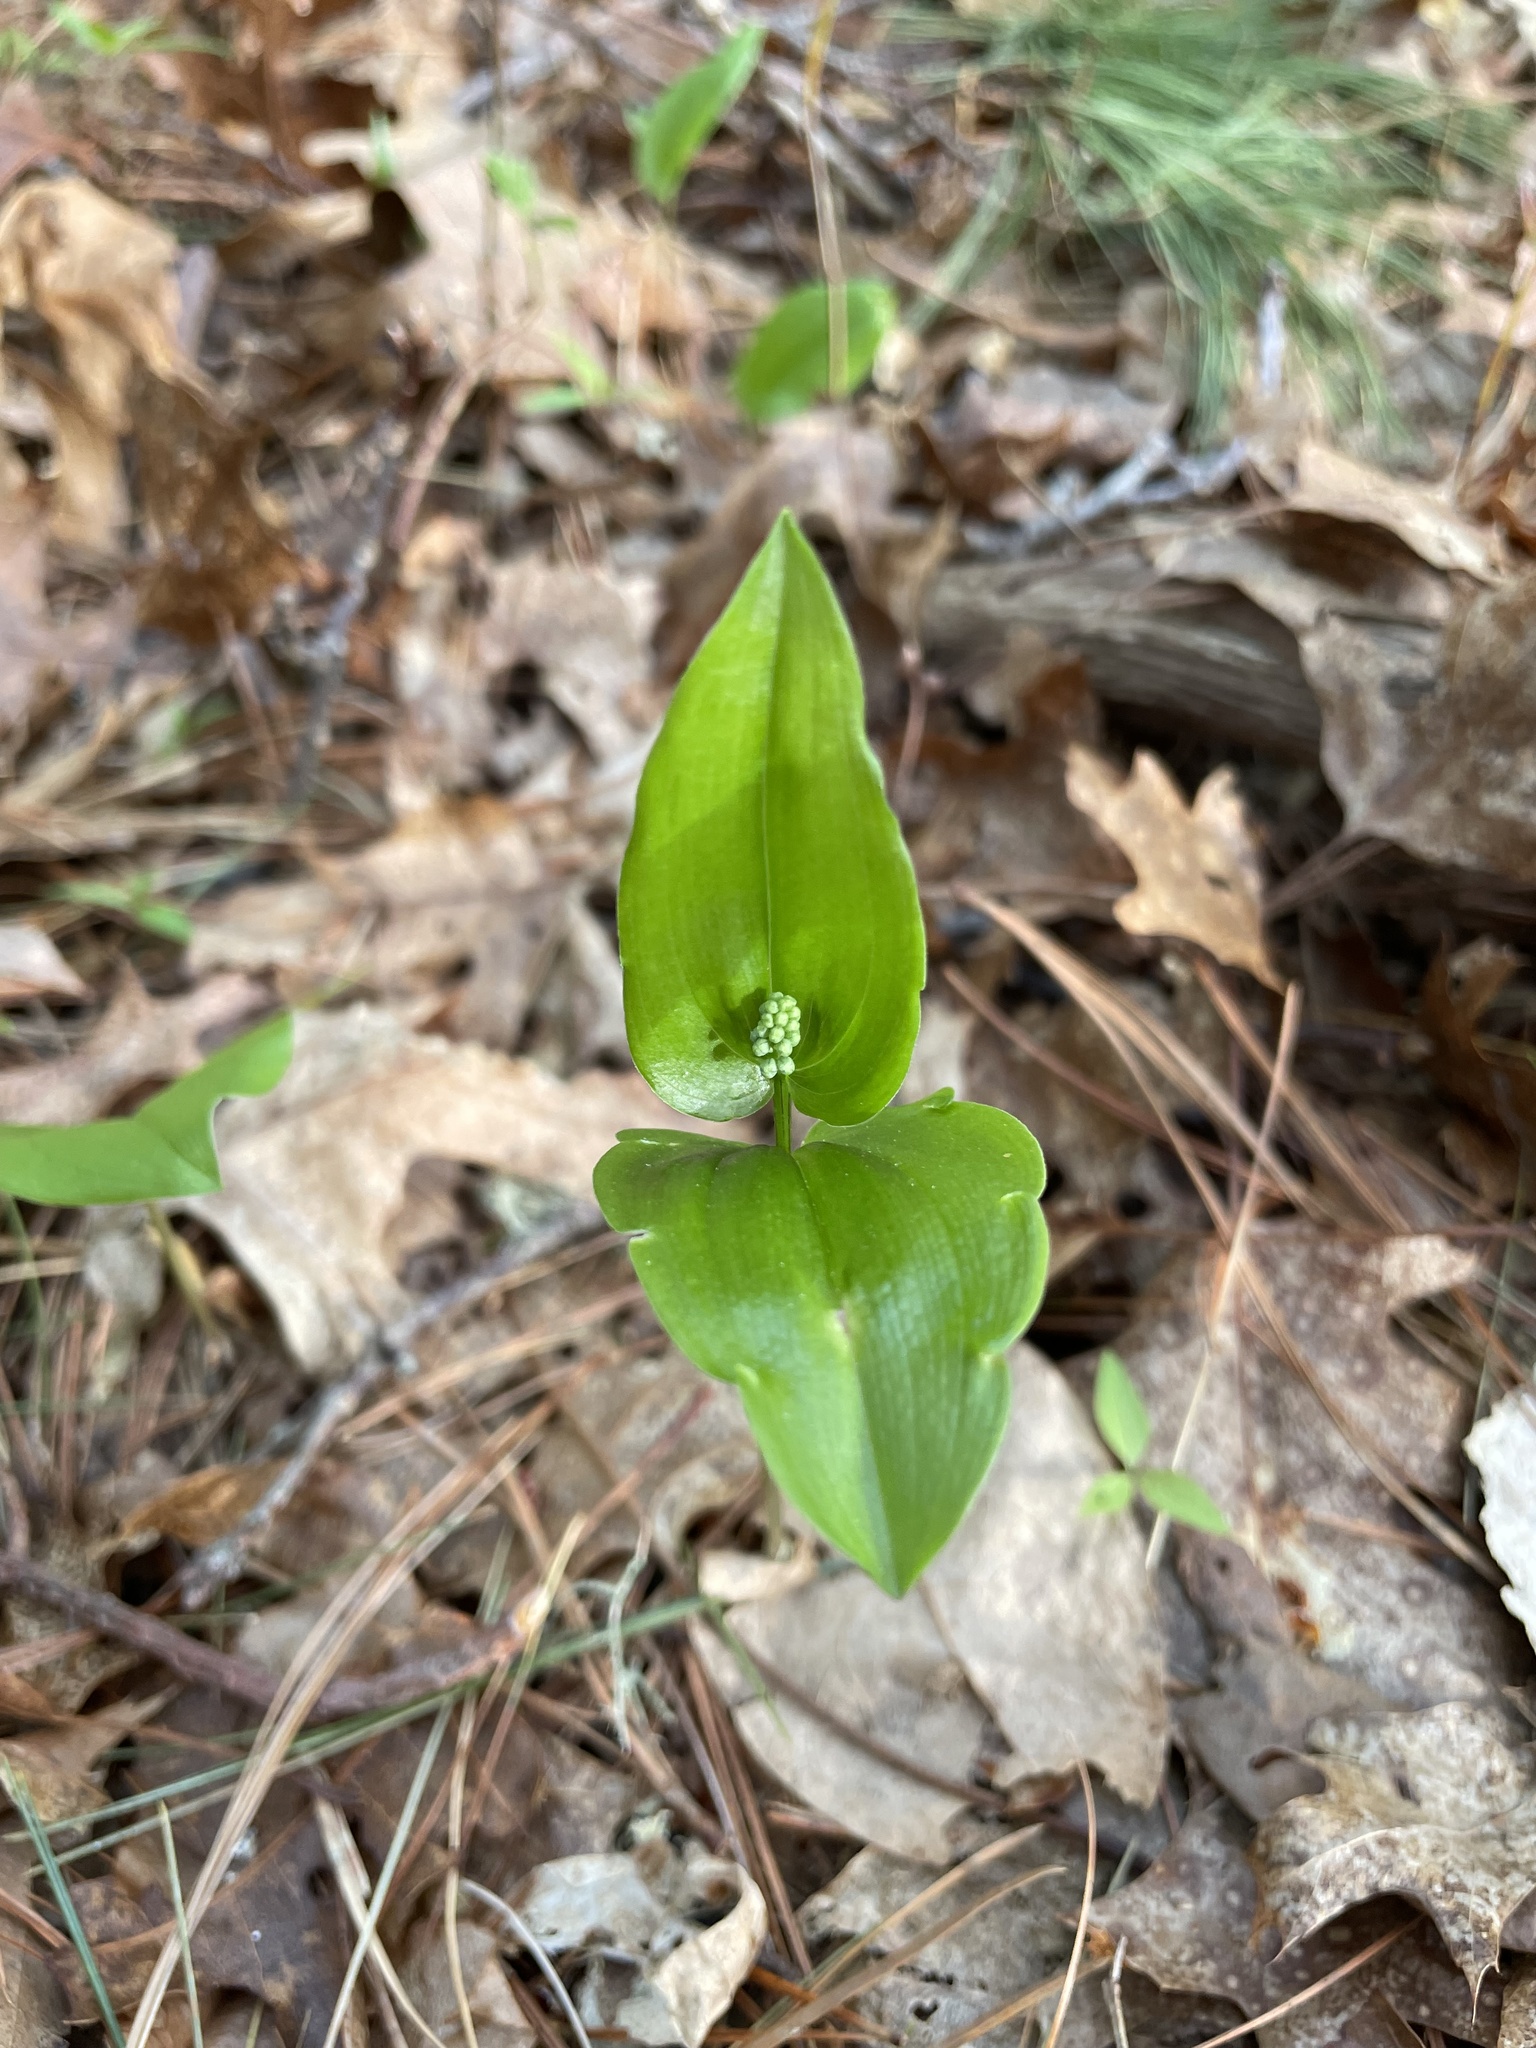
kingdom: Plantae
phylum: Tracheophyta
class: Liliopsida
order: Asparagales
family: Asparagaceae
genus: Maianthemum
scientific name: Maianthemum canadense
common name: False lily-of-the-valley
